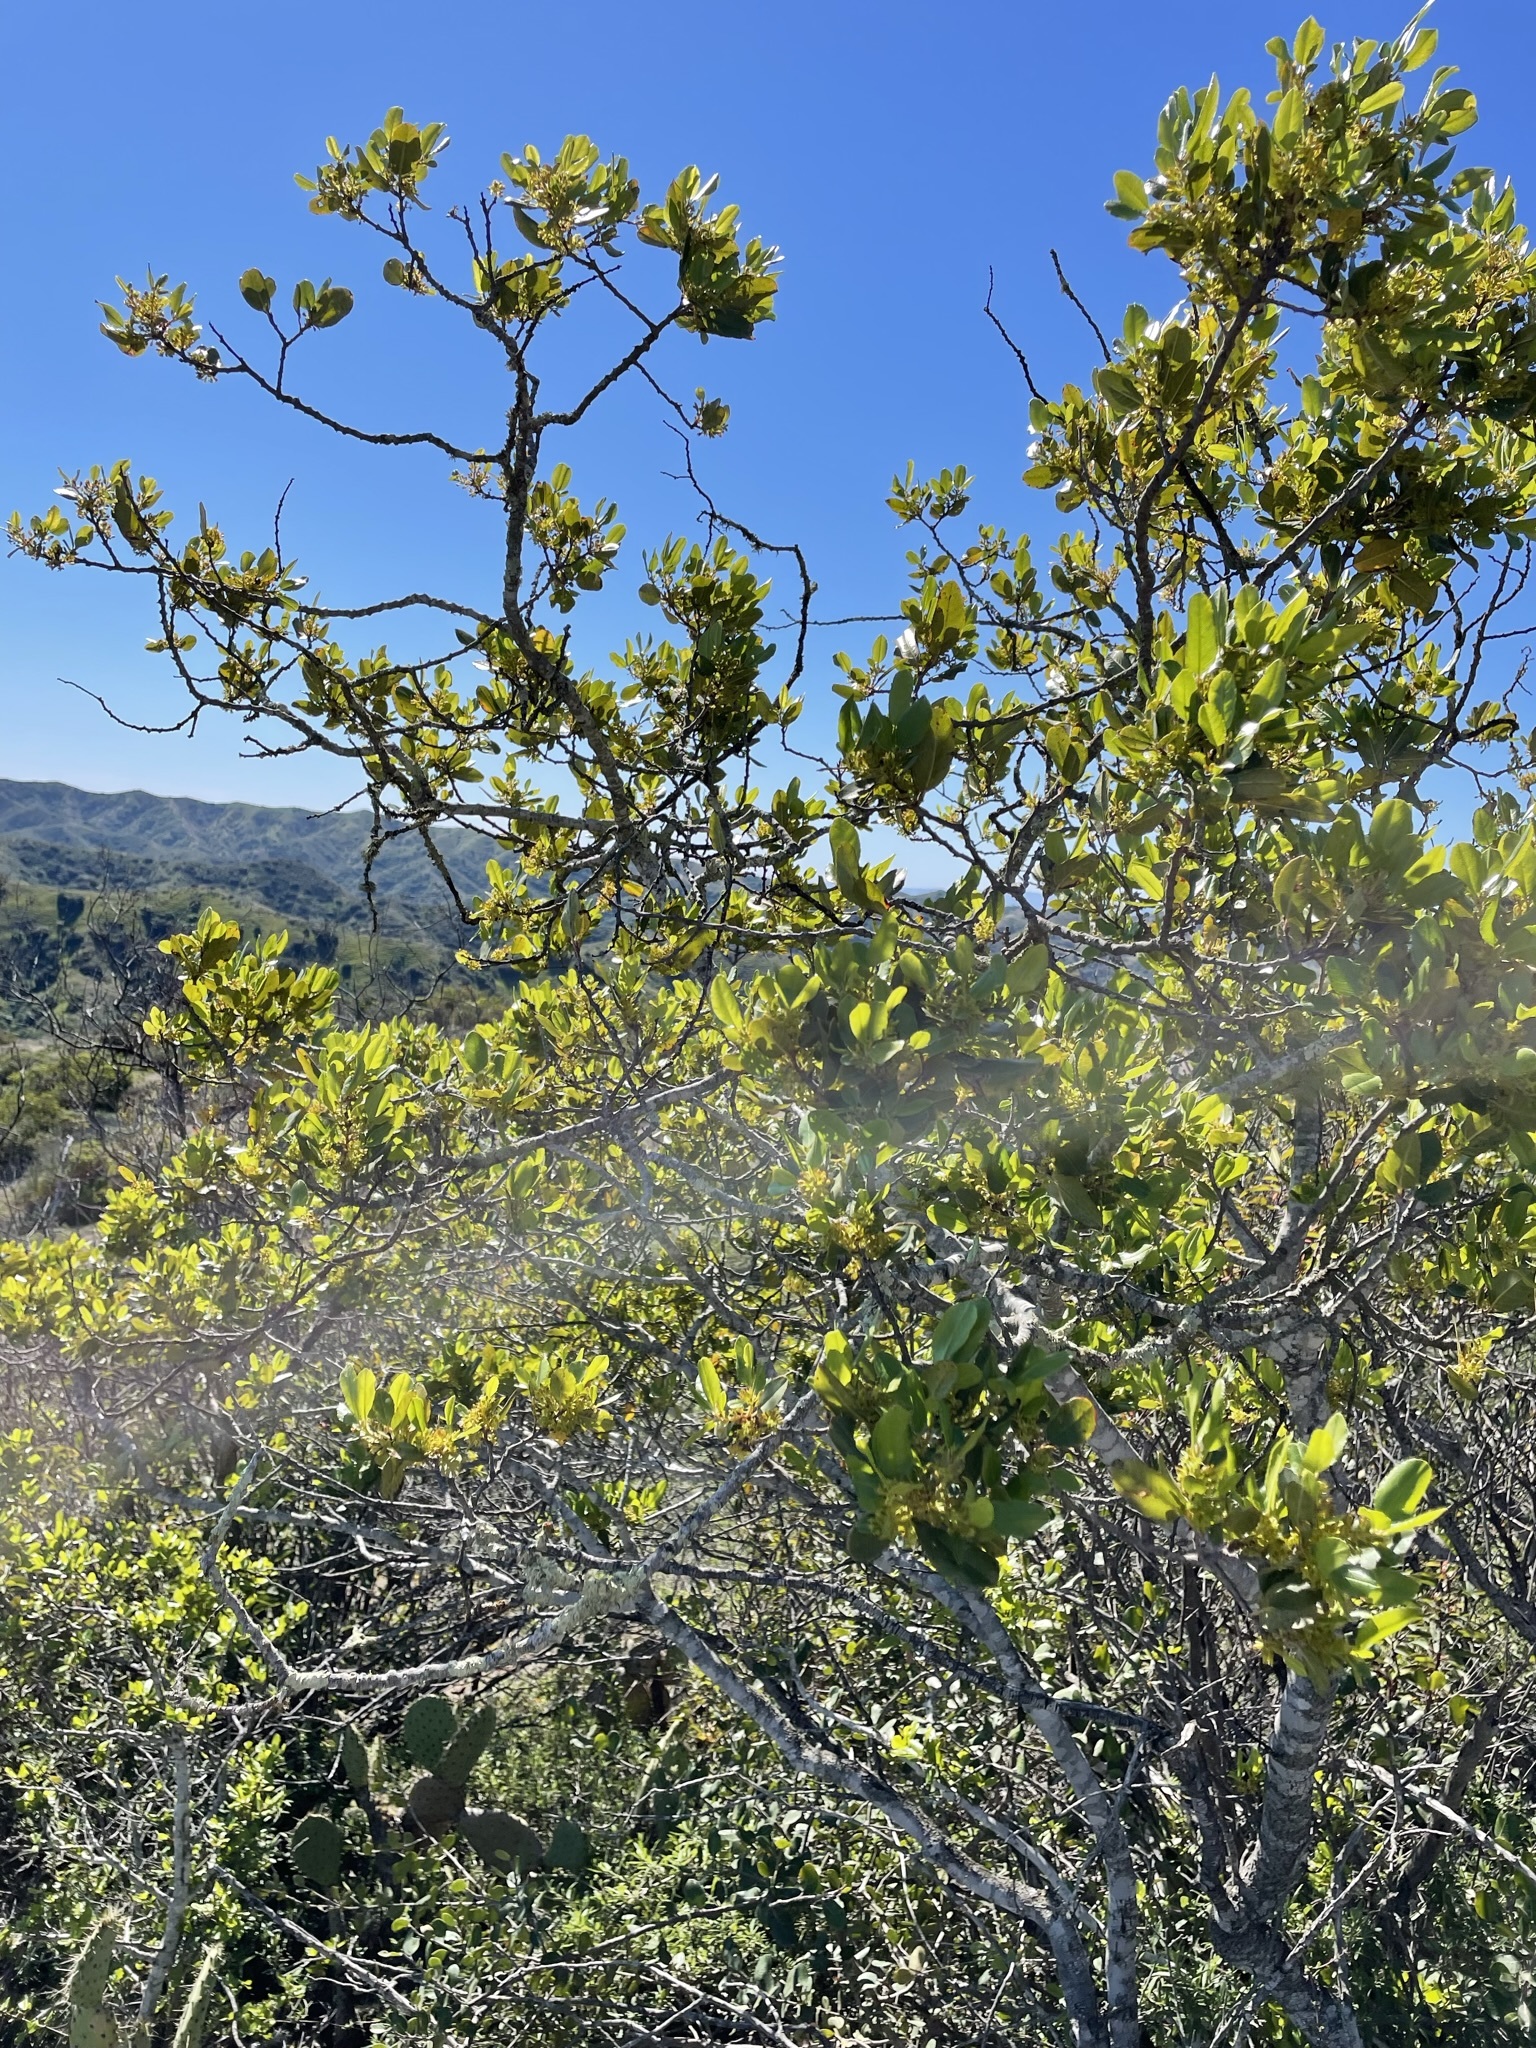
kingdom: Plantae
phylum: Tracheophyta
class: Magnoliopsida
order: Rosales
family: Rhamnaceae
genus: Endotropis
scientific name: Endotropis crocea
